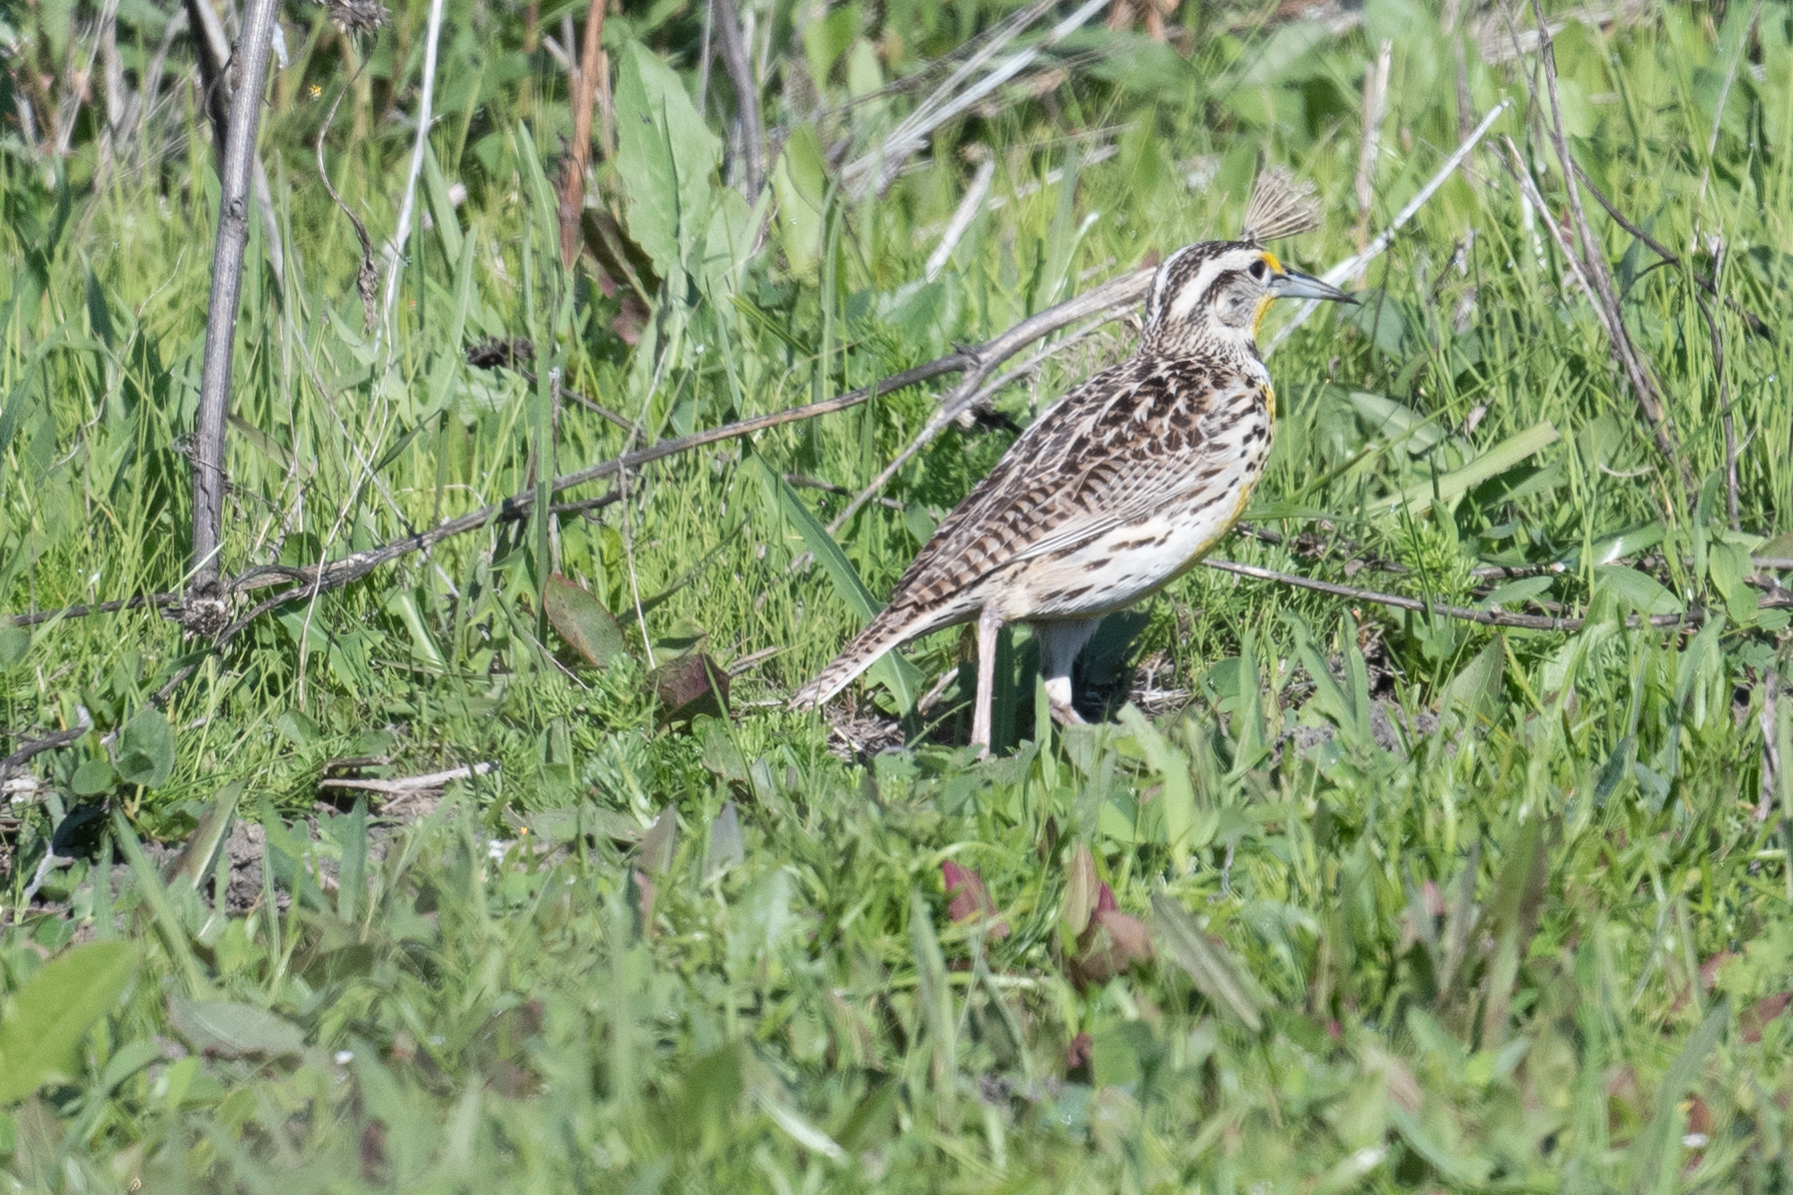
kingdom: Animalia
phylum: Chordata
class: Aves
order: Passeriformes
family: Icteridae
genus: Sturnella
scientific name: Sturnella neglecta
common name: Western meadowlark
